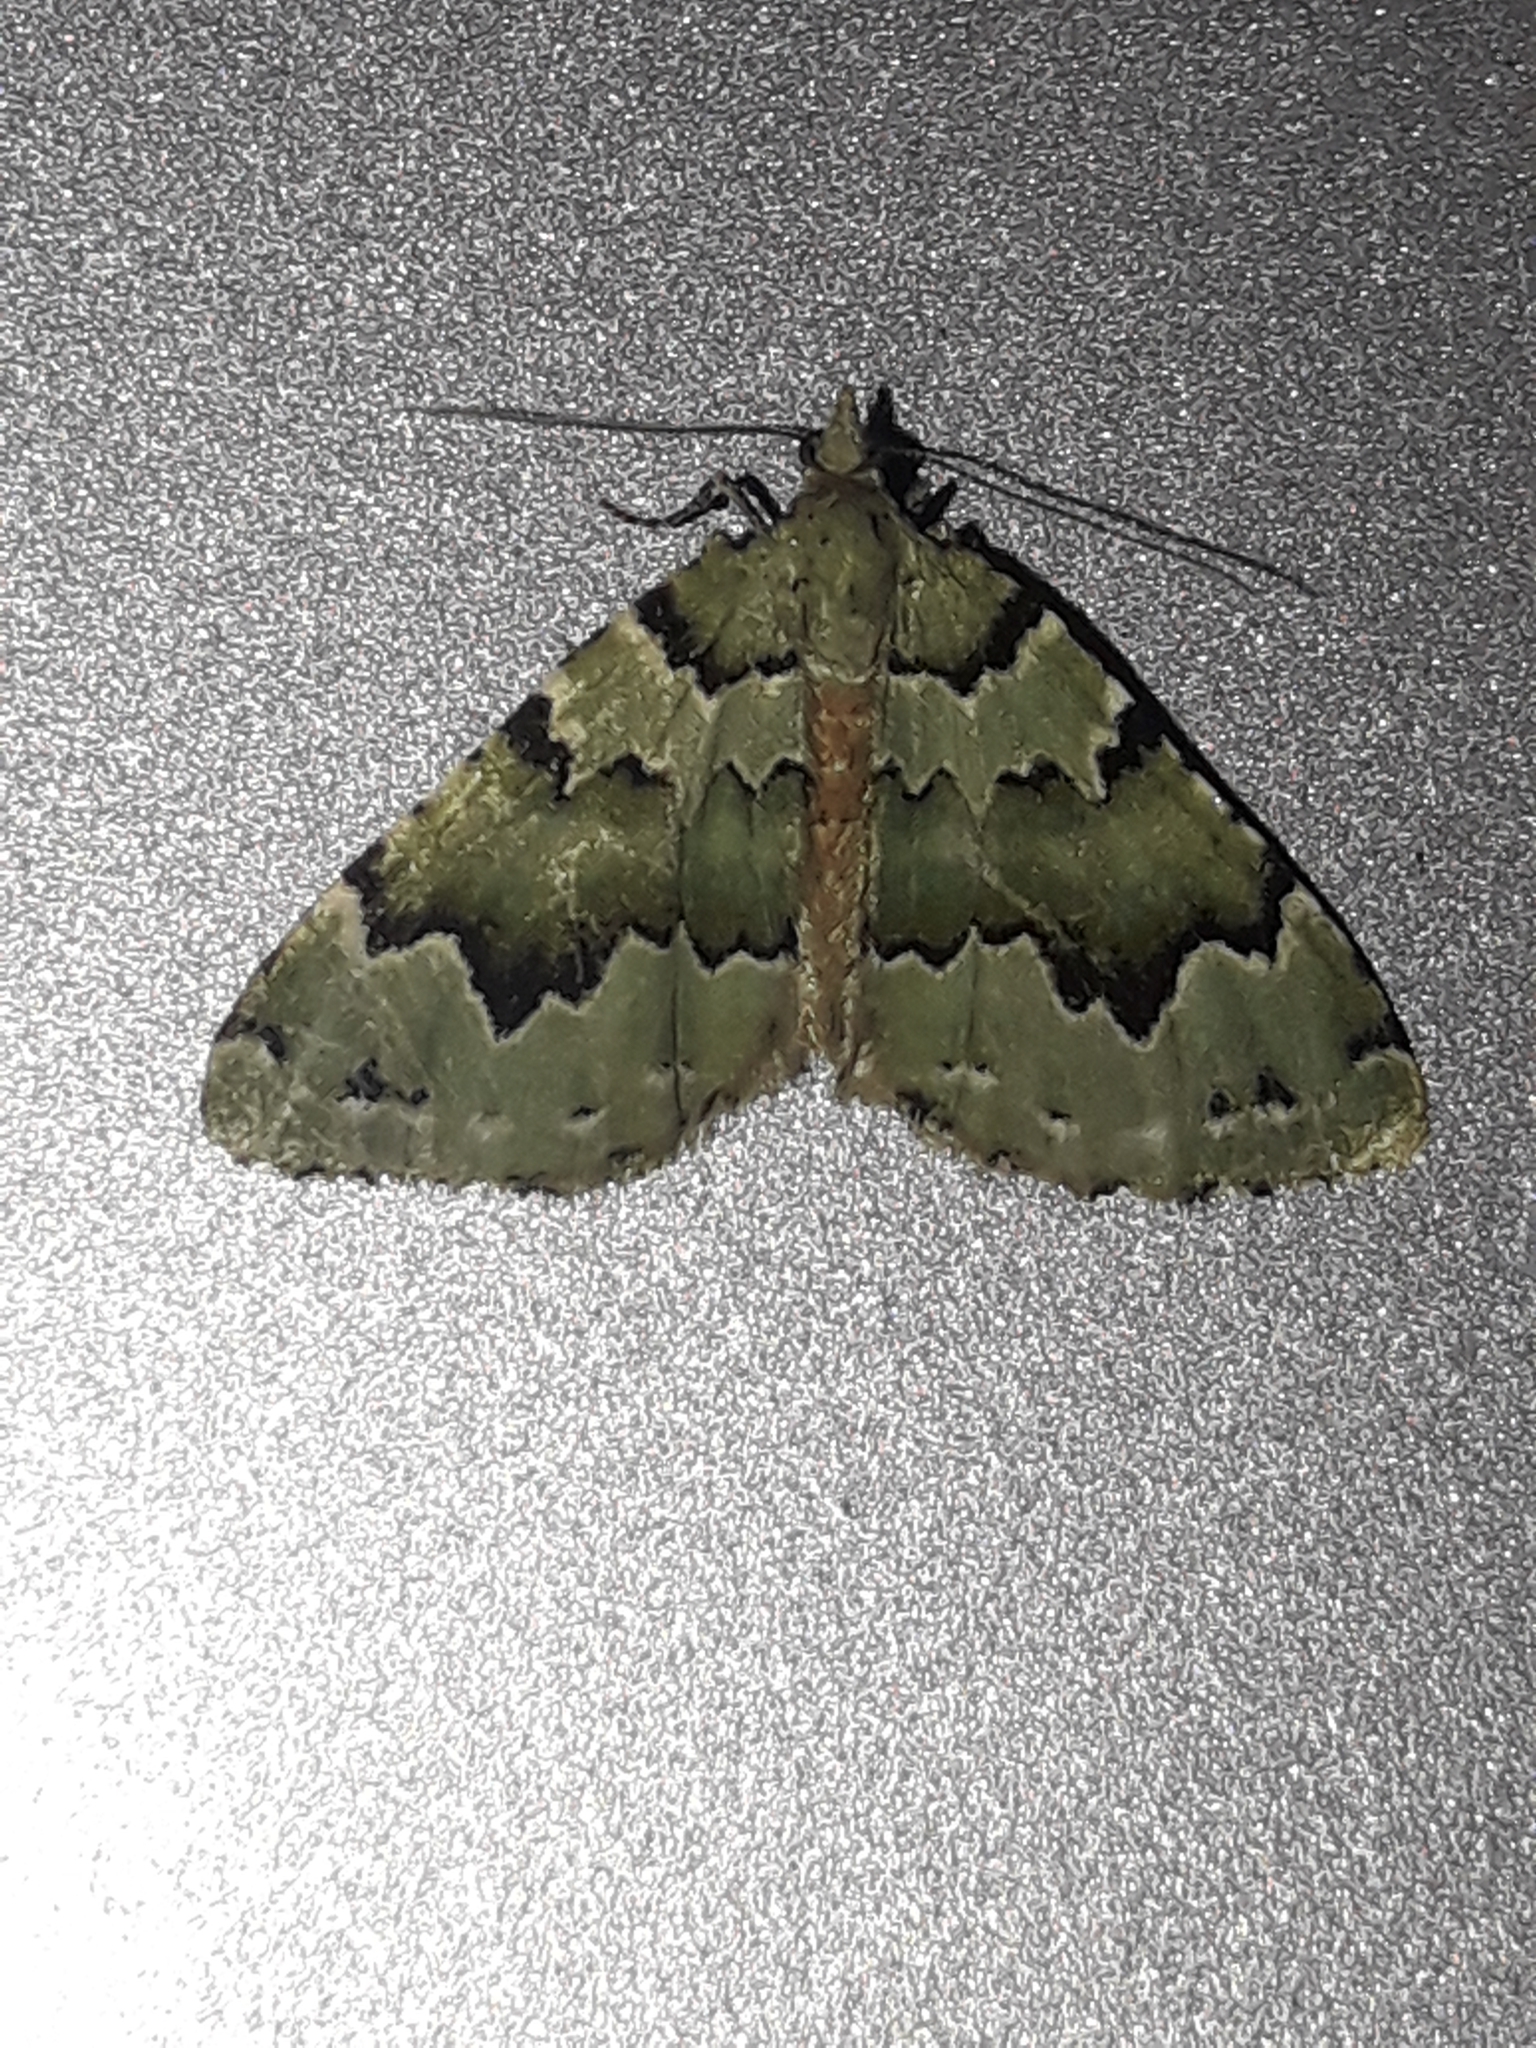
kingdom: Animalia
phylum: Arthropoda
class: Insecta
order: Lepidoptera
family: Geometridae
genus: Asaphodes
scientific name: Asaphodes adonis
